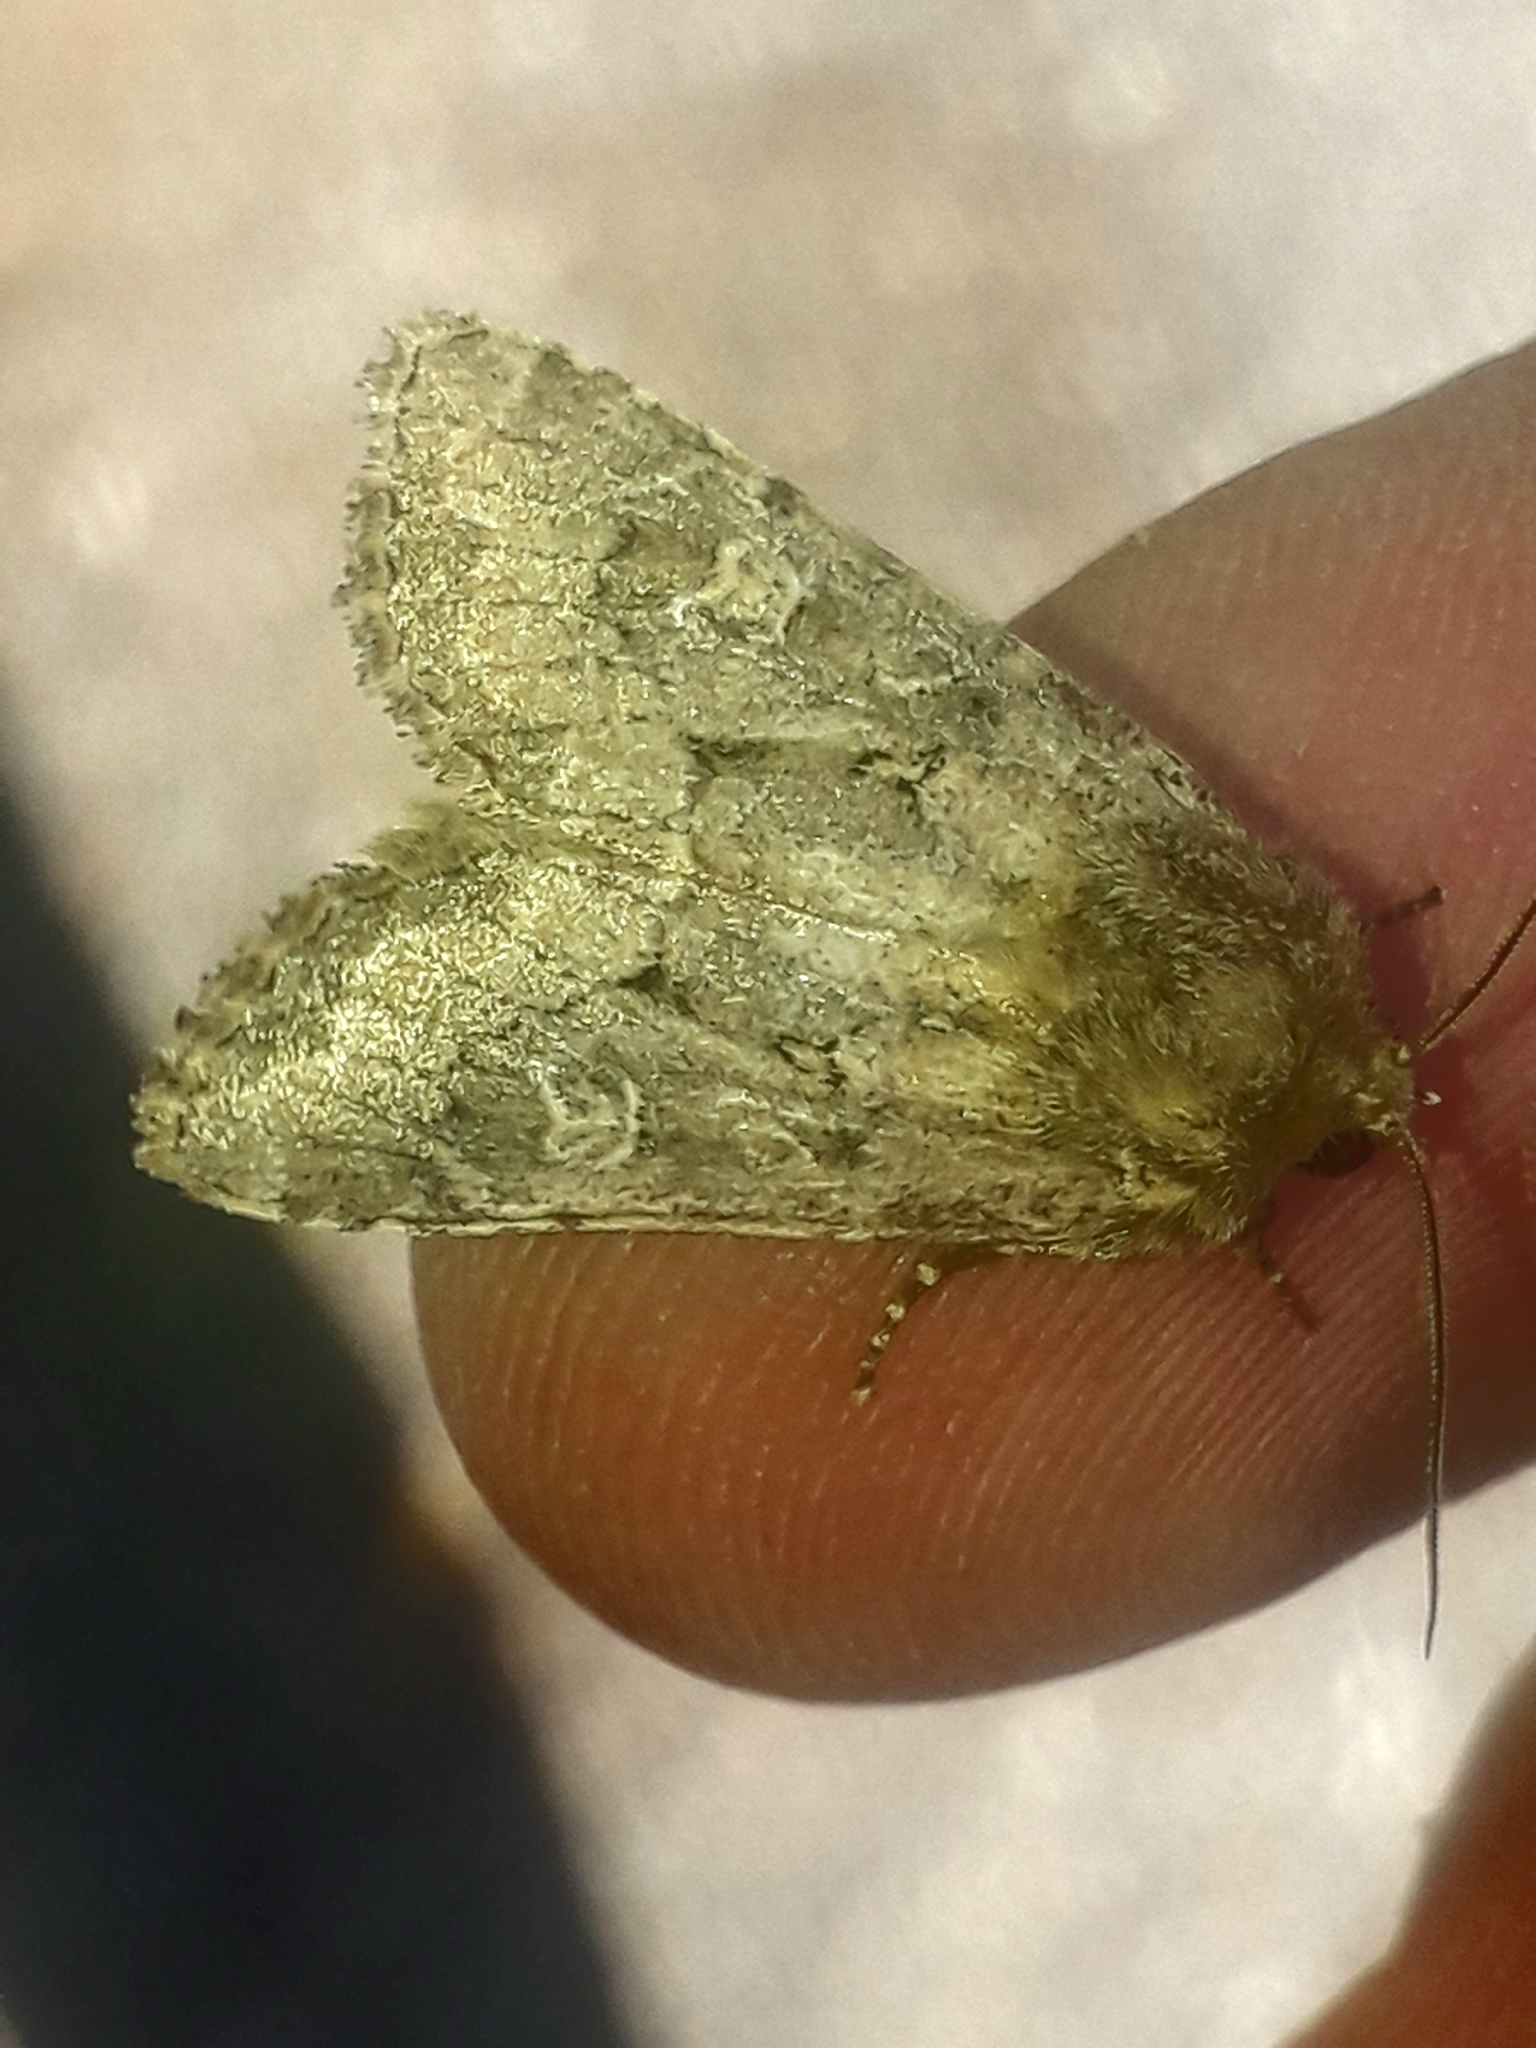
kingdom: Animalia
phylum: Arthropoda
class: Insecta
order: Lepidoptera
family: Noctuidae
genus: Luperina
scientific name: Luperina testacea
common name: Flounced rustic
